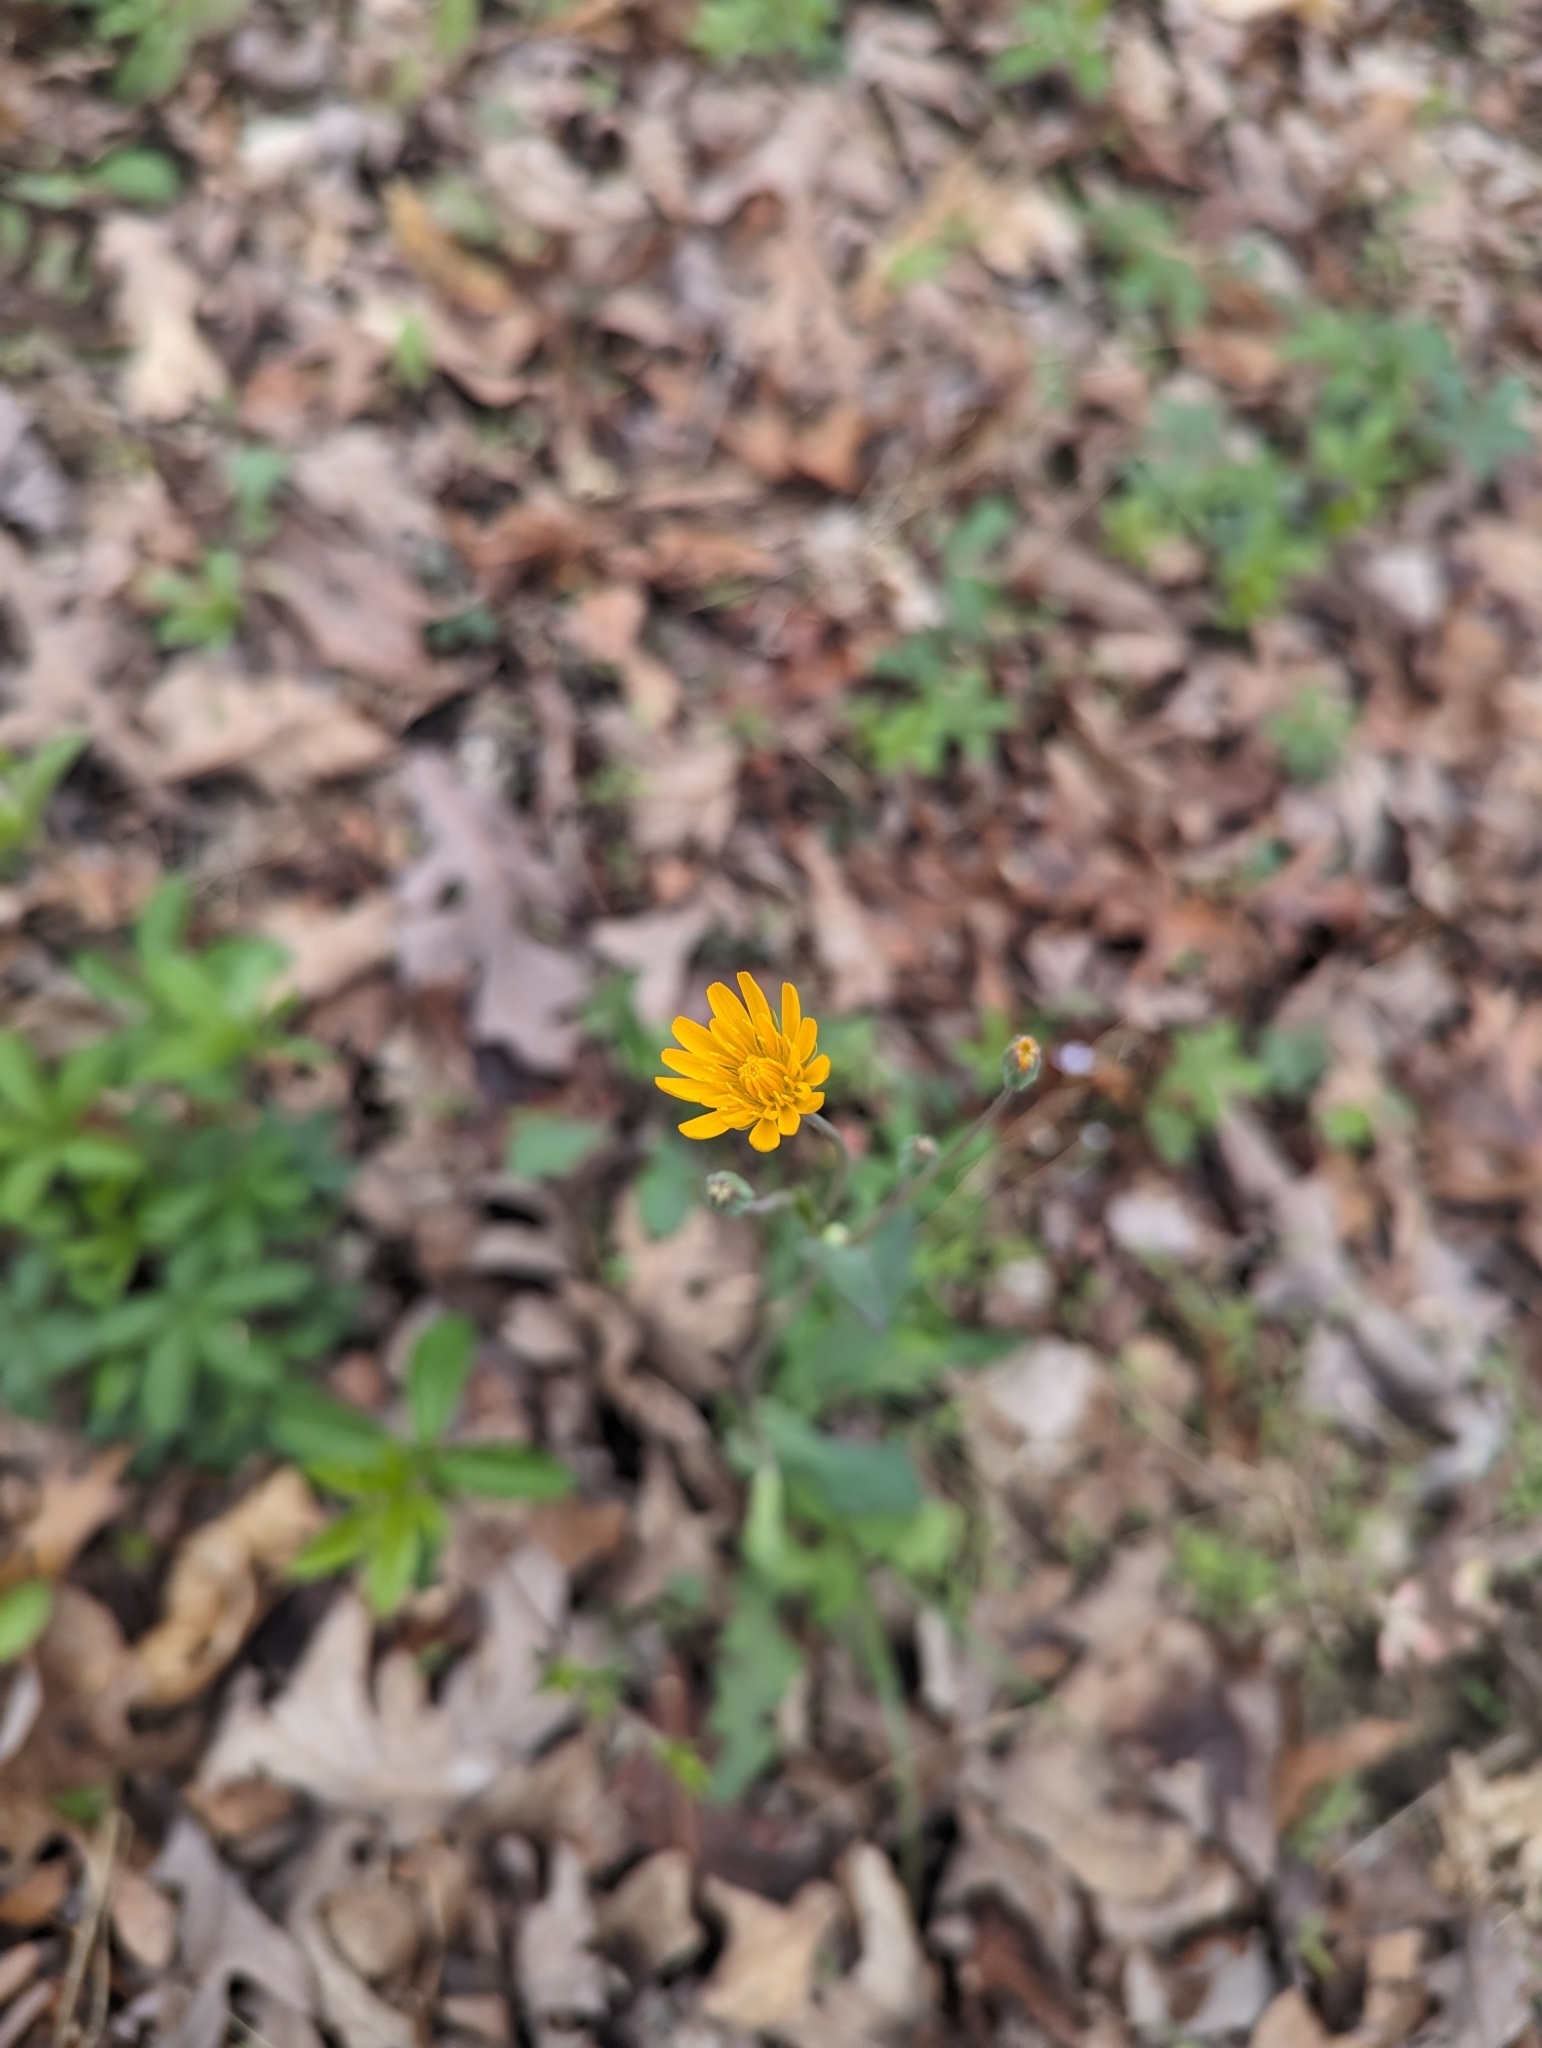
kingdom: Plantae
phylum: Tracheophyta
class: Magnoliopsida
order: Asterales
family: Asteraceae
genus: Krigia
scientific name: Krigia biflora
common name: Orange dwarf-dandelion
